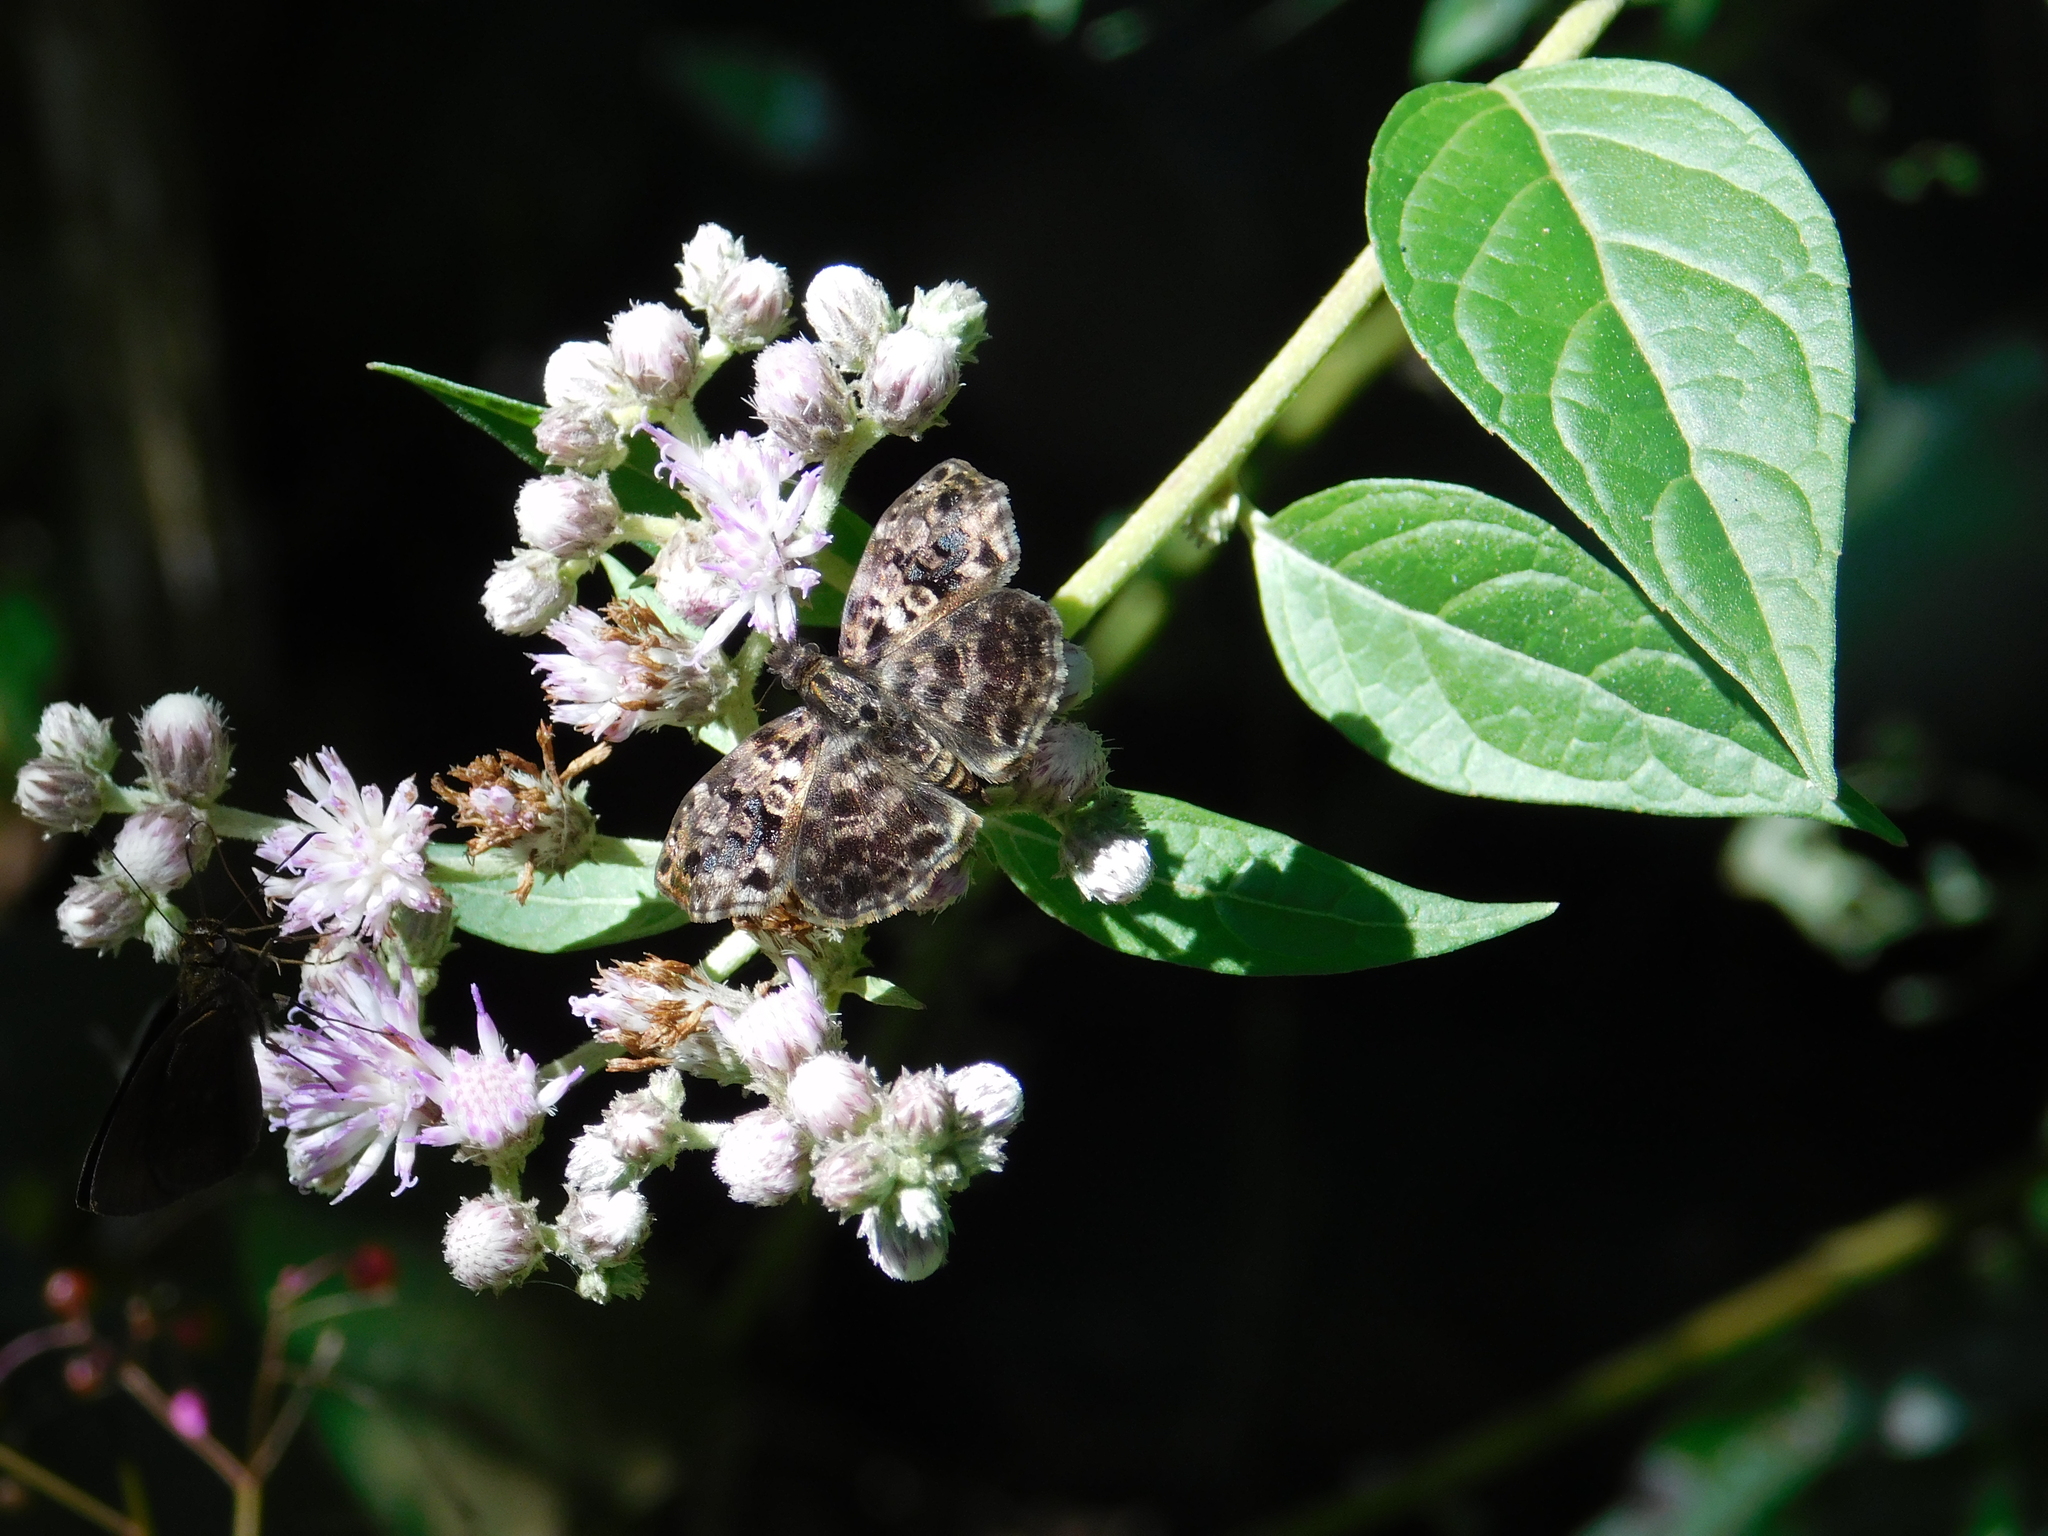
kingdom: Plantae
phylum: Tracheophyta
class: Magnoliopsida
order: Asterales
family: Asteraceae
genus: Cyrtocymura
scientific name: Cyrtocymura scorpioides
